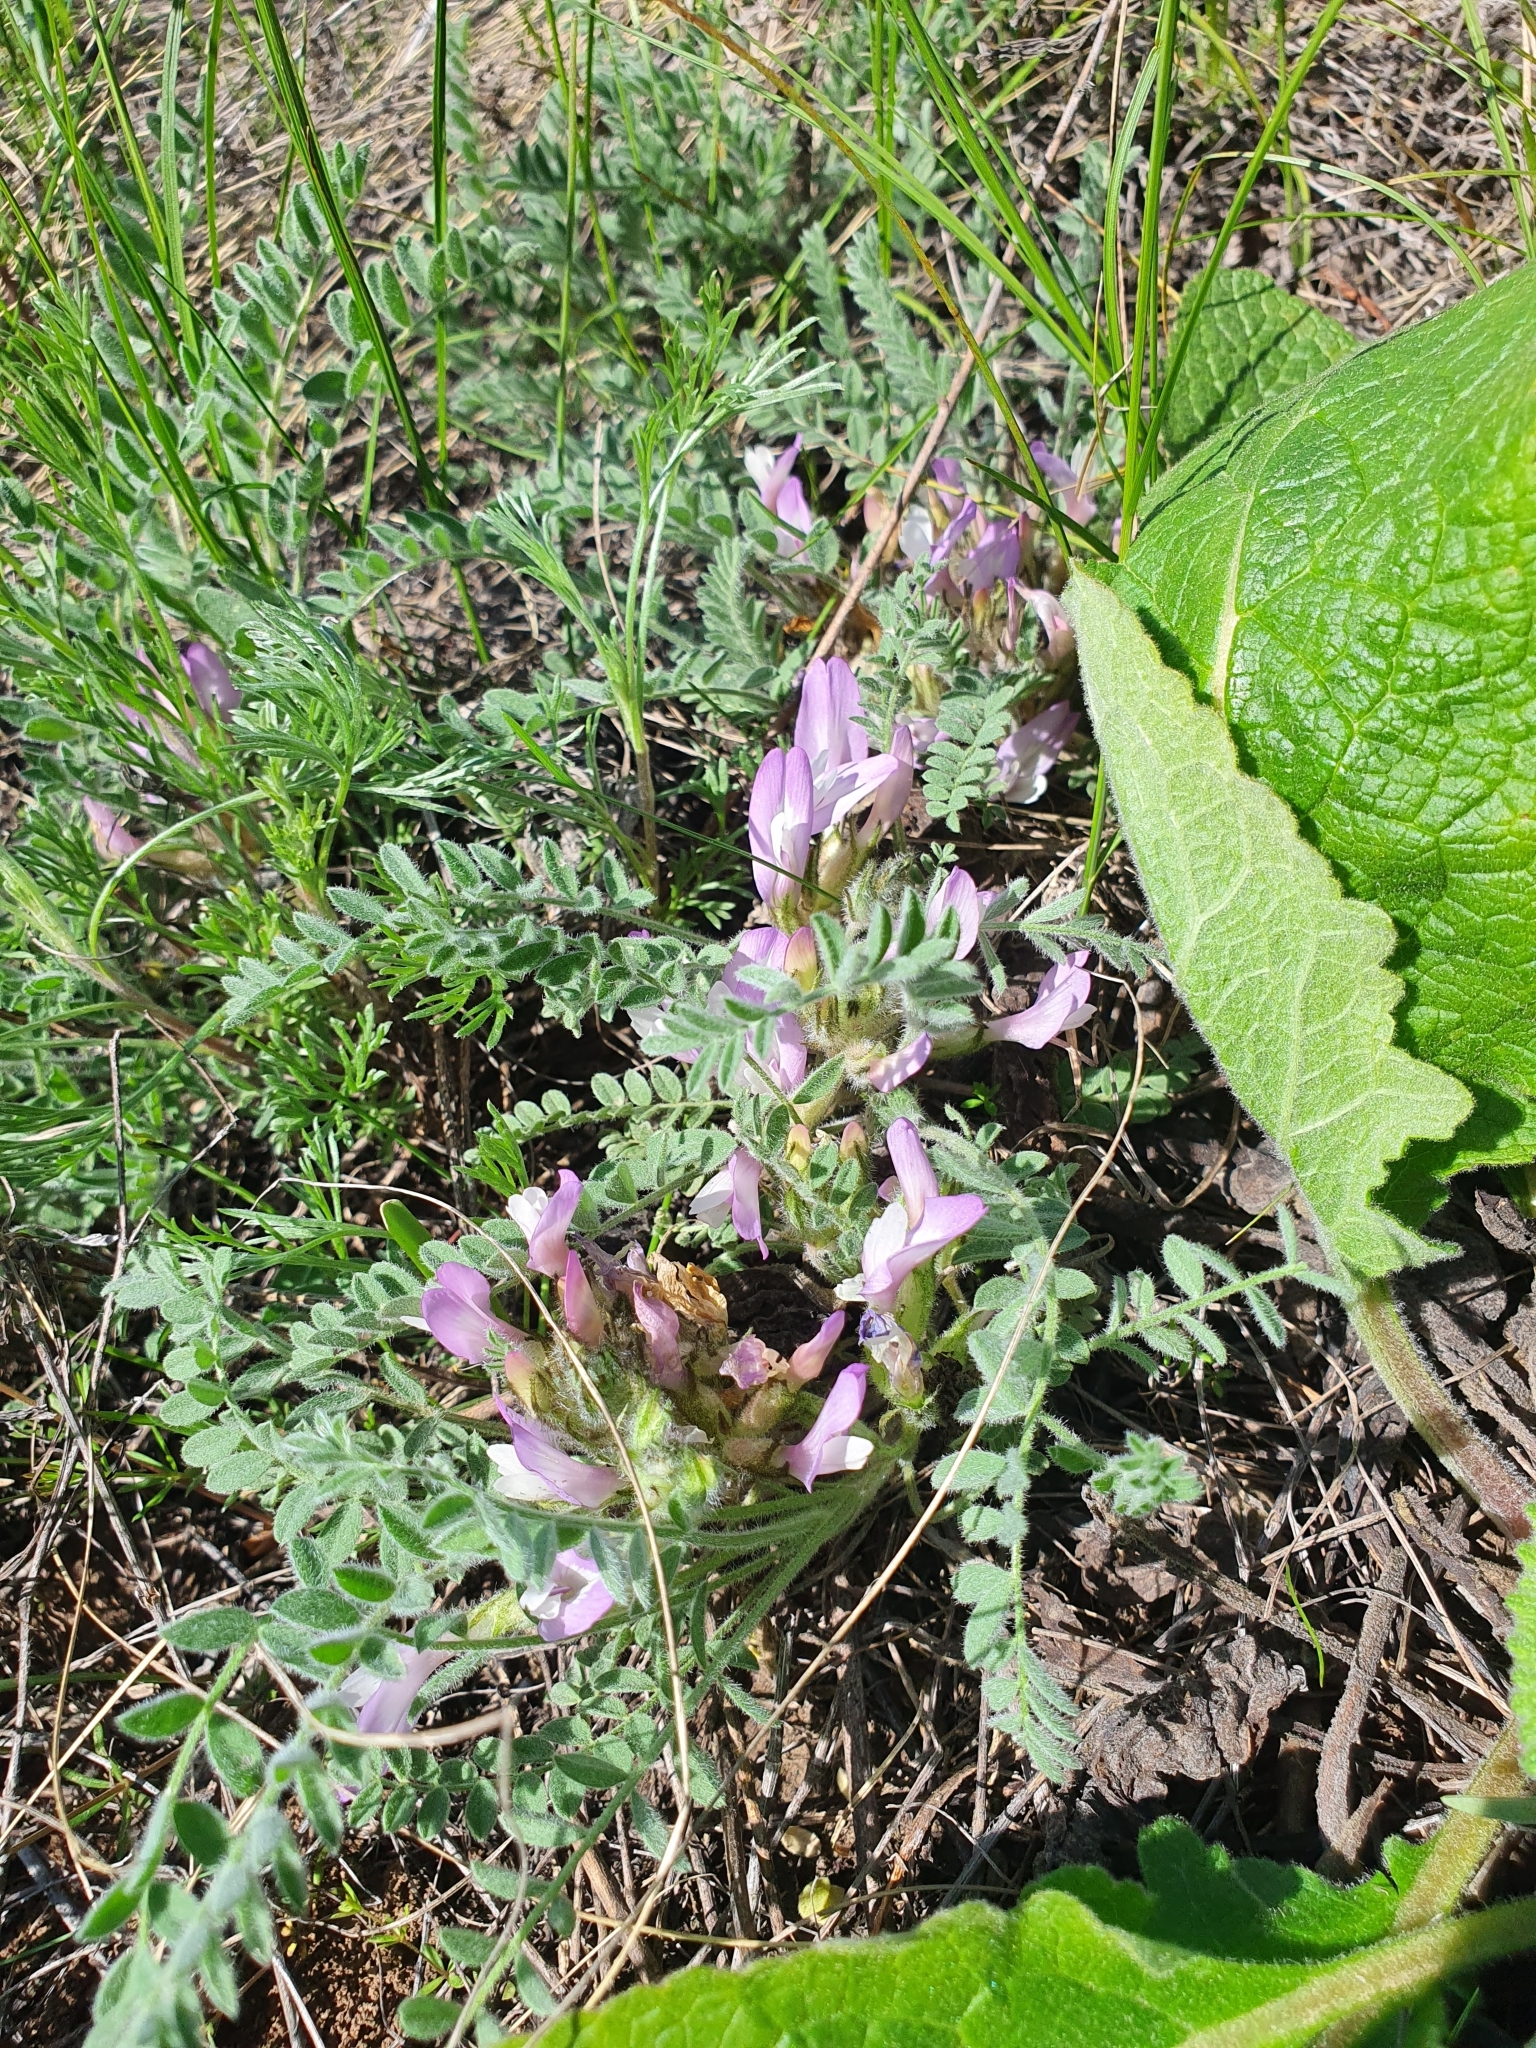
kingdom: Plantae
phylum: Tracheophyta
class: Magnoliopsida
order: Fabales
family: Fabaceae
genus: Astragalus
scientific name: Astragalus testiculatus
